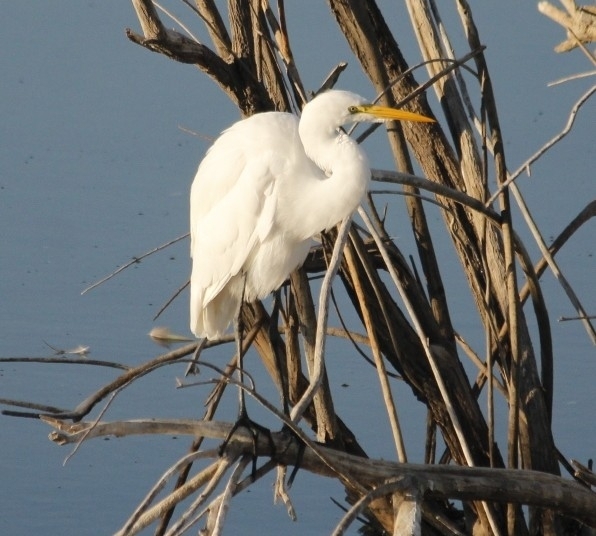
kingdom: Animalia
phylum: Chordata
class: Aves
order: Pelecaniformes
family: Ardeidae
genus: Ardea
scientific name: Ardea alba
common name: Great egret
